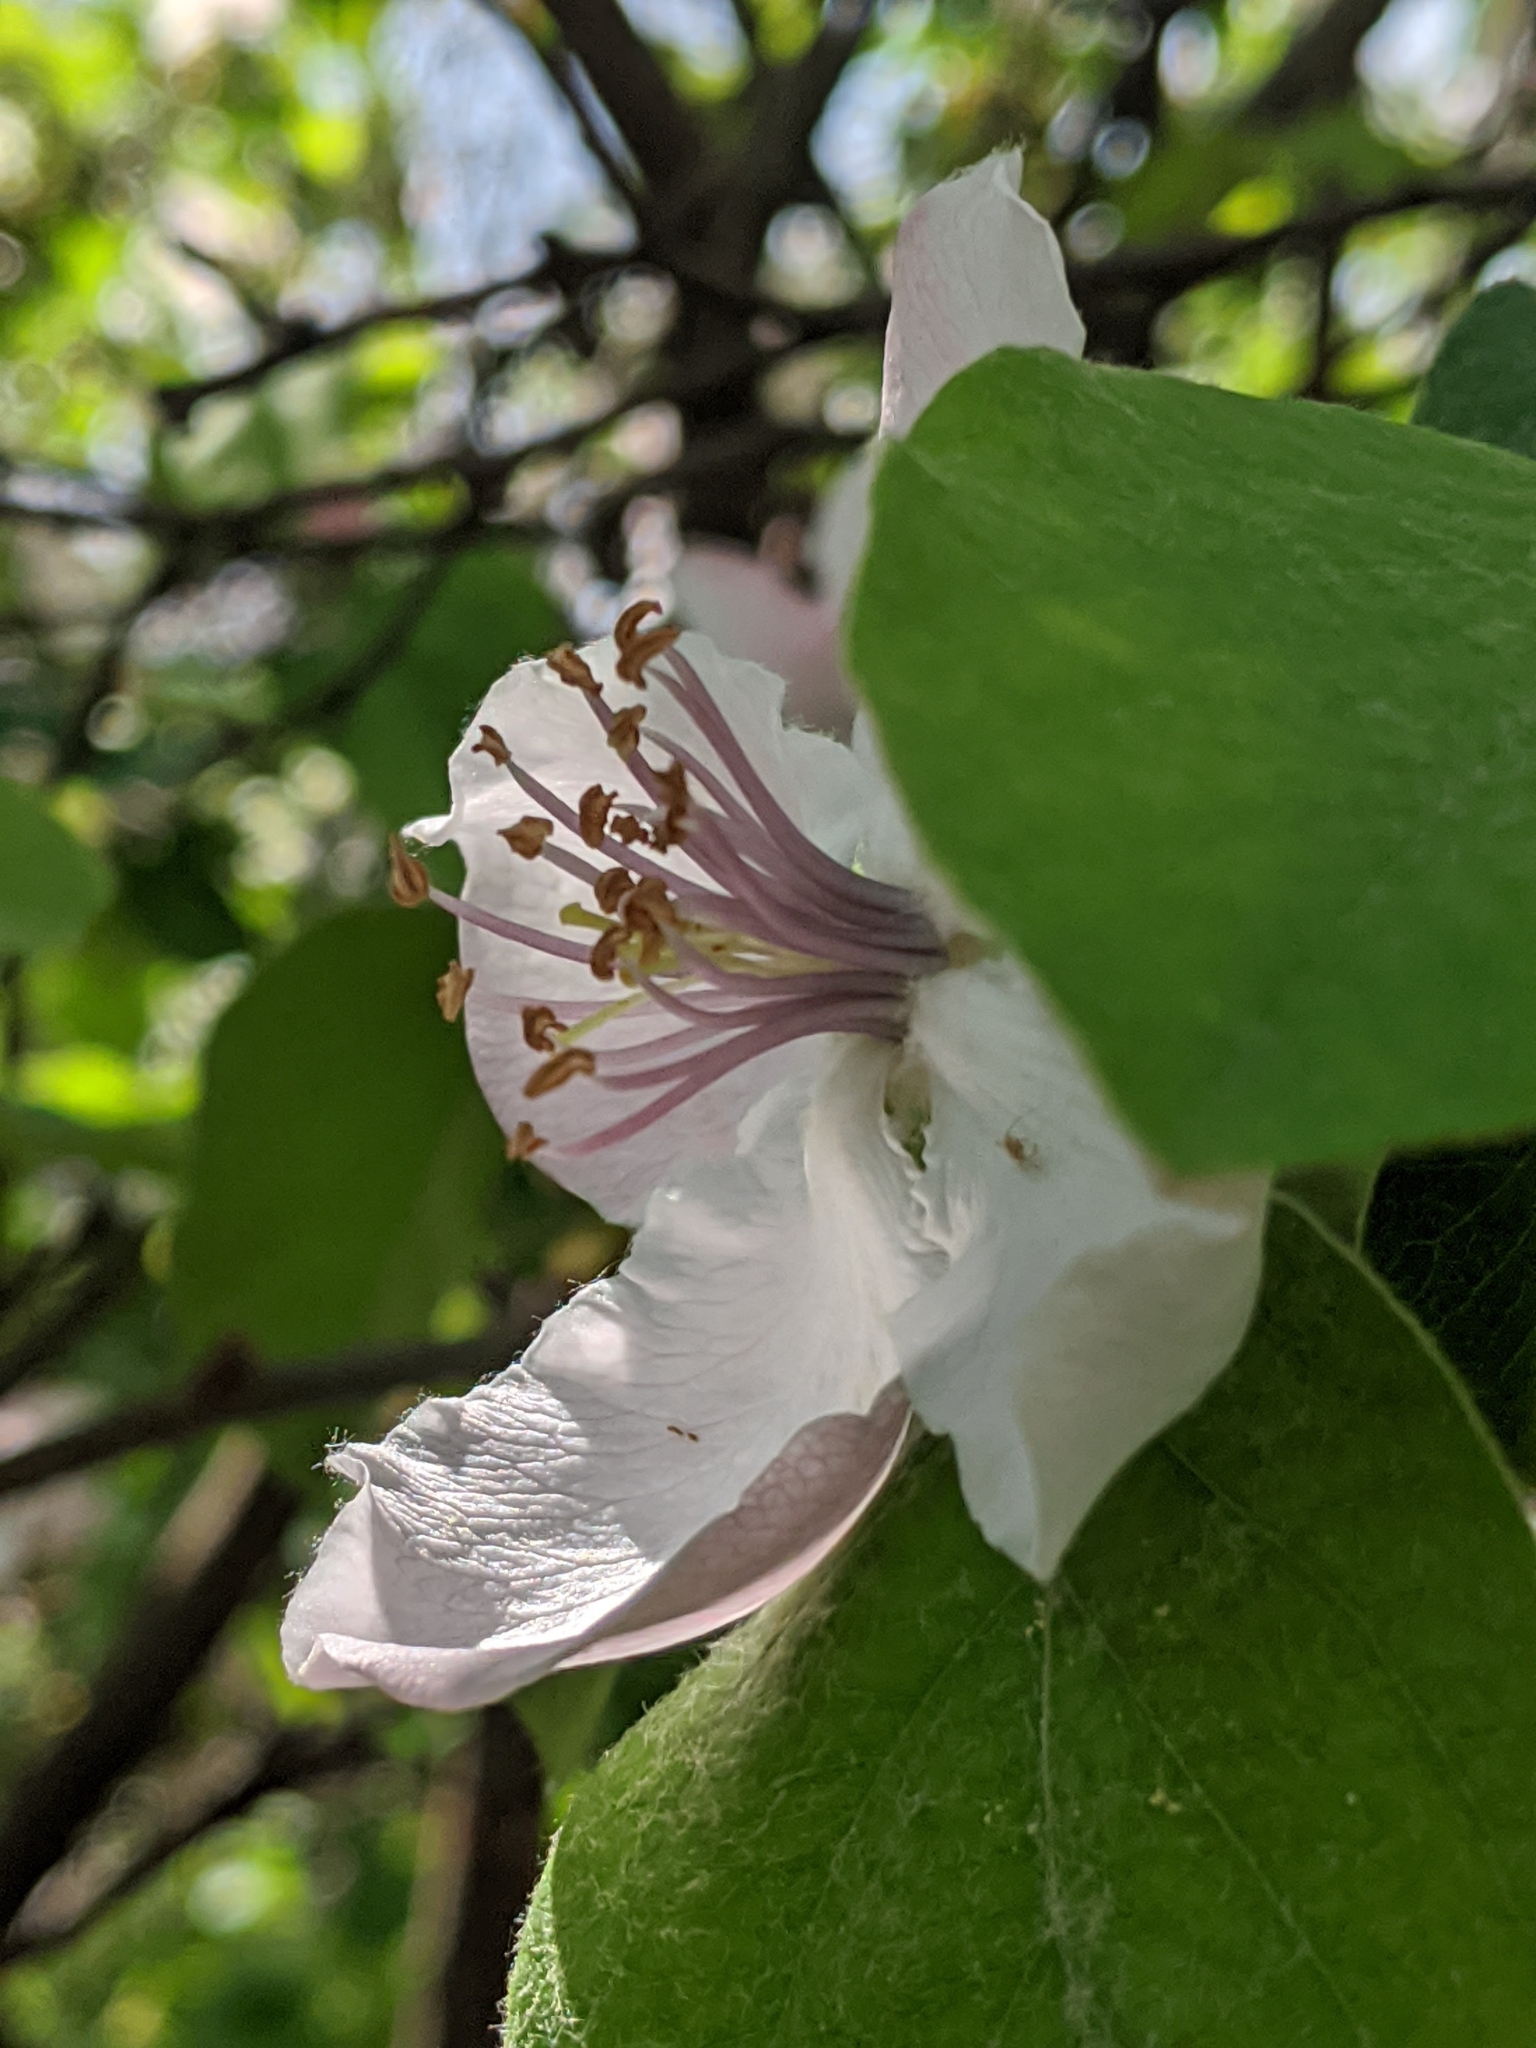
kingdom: Plantae
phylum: Tracheophyta
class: Magnoliopsida
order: Rosales
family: Rosaceae
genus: Cydonia
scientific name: Cydonia oblonga
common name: Quince
